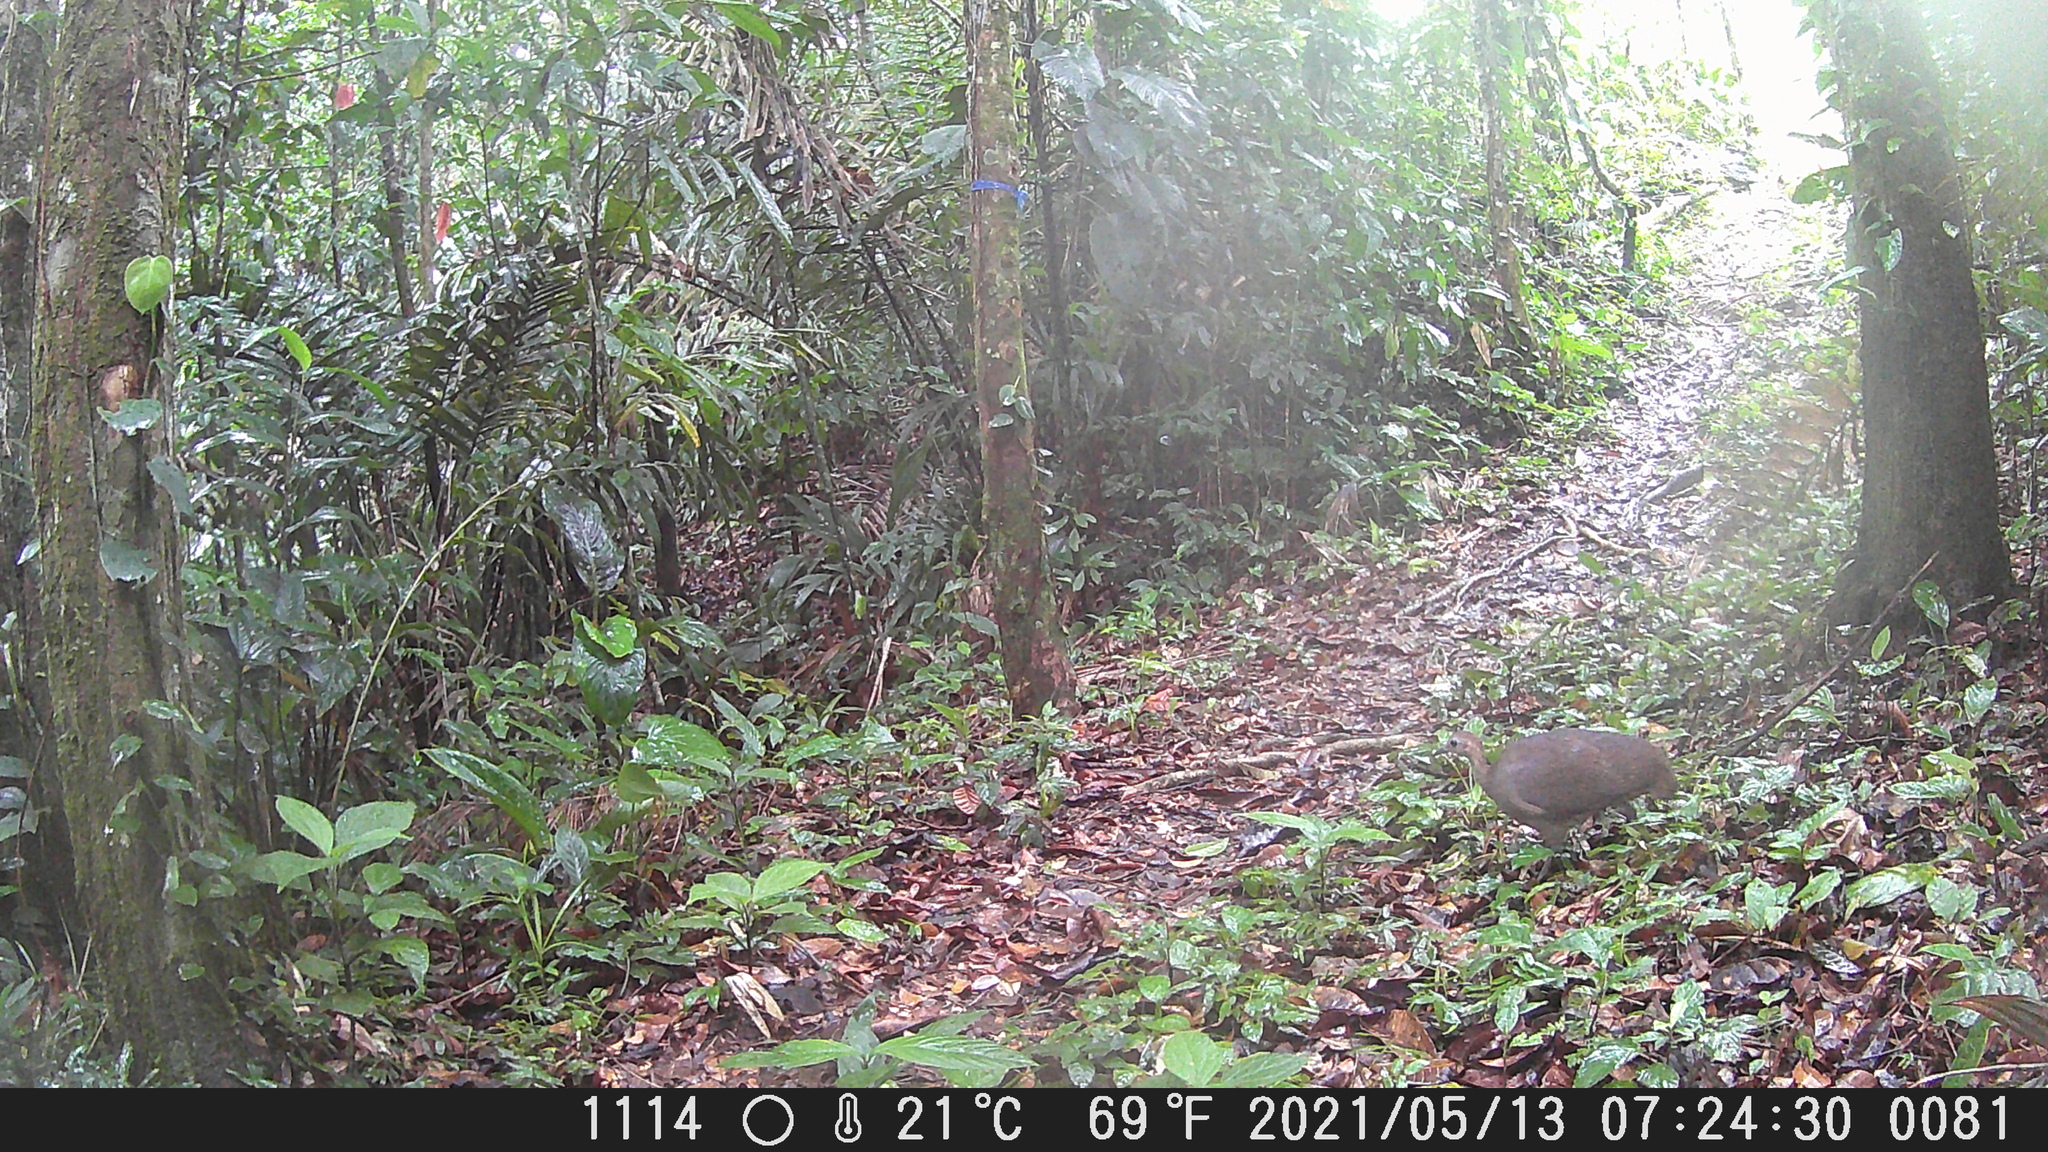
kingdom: Animalia
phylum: Chordata
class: Aves
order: Tinamiformes
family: Tinamidae
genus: Tinamus
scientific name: Tinamus major
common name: Great tinamou
